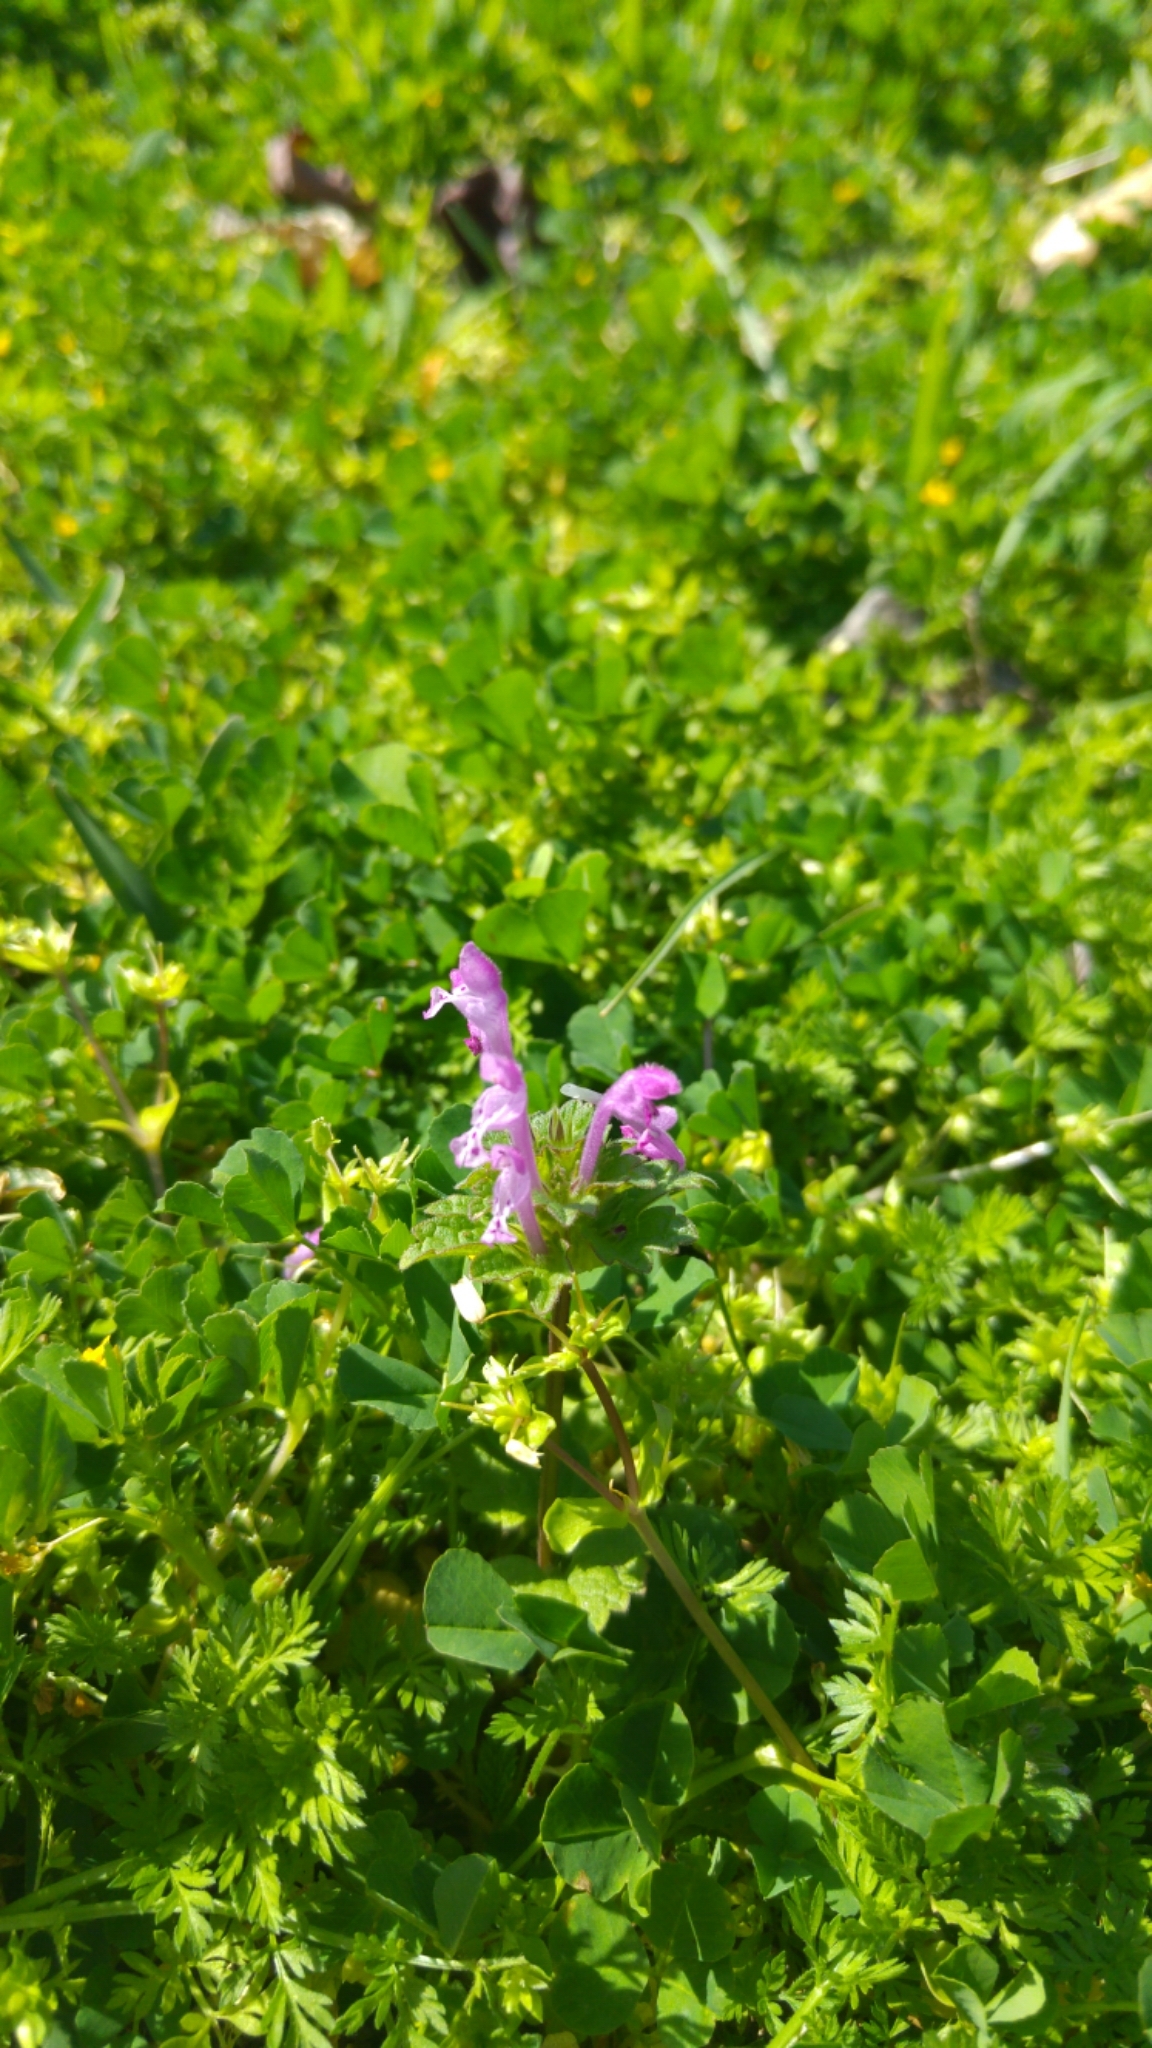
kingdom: Plantae
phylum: Tracheophyta
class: Magnoliopsida
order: Lamiales
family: Lamiaceae
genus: Lamium
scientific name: Lamium amplexicaule
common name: Henbit dead-nettle
